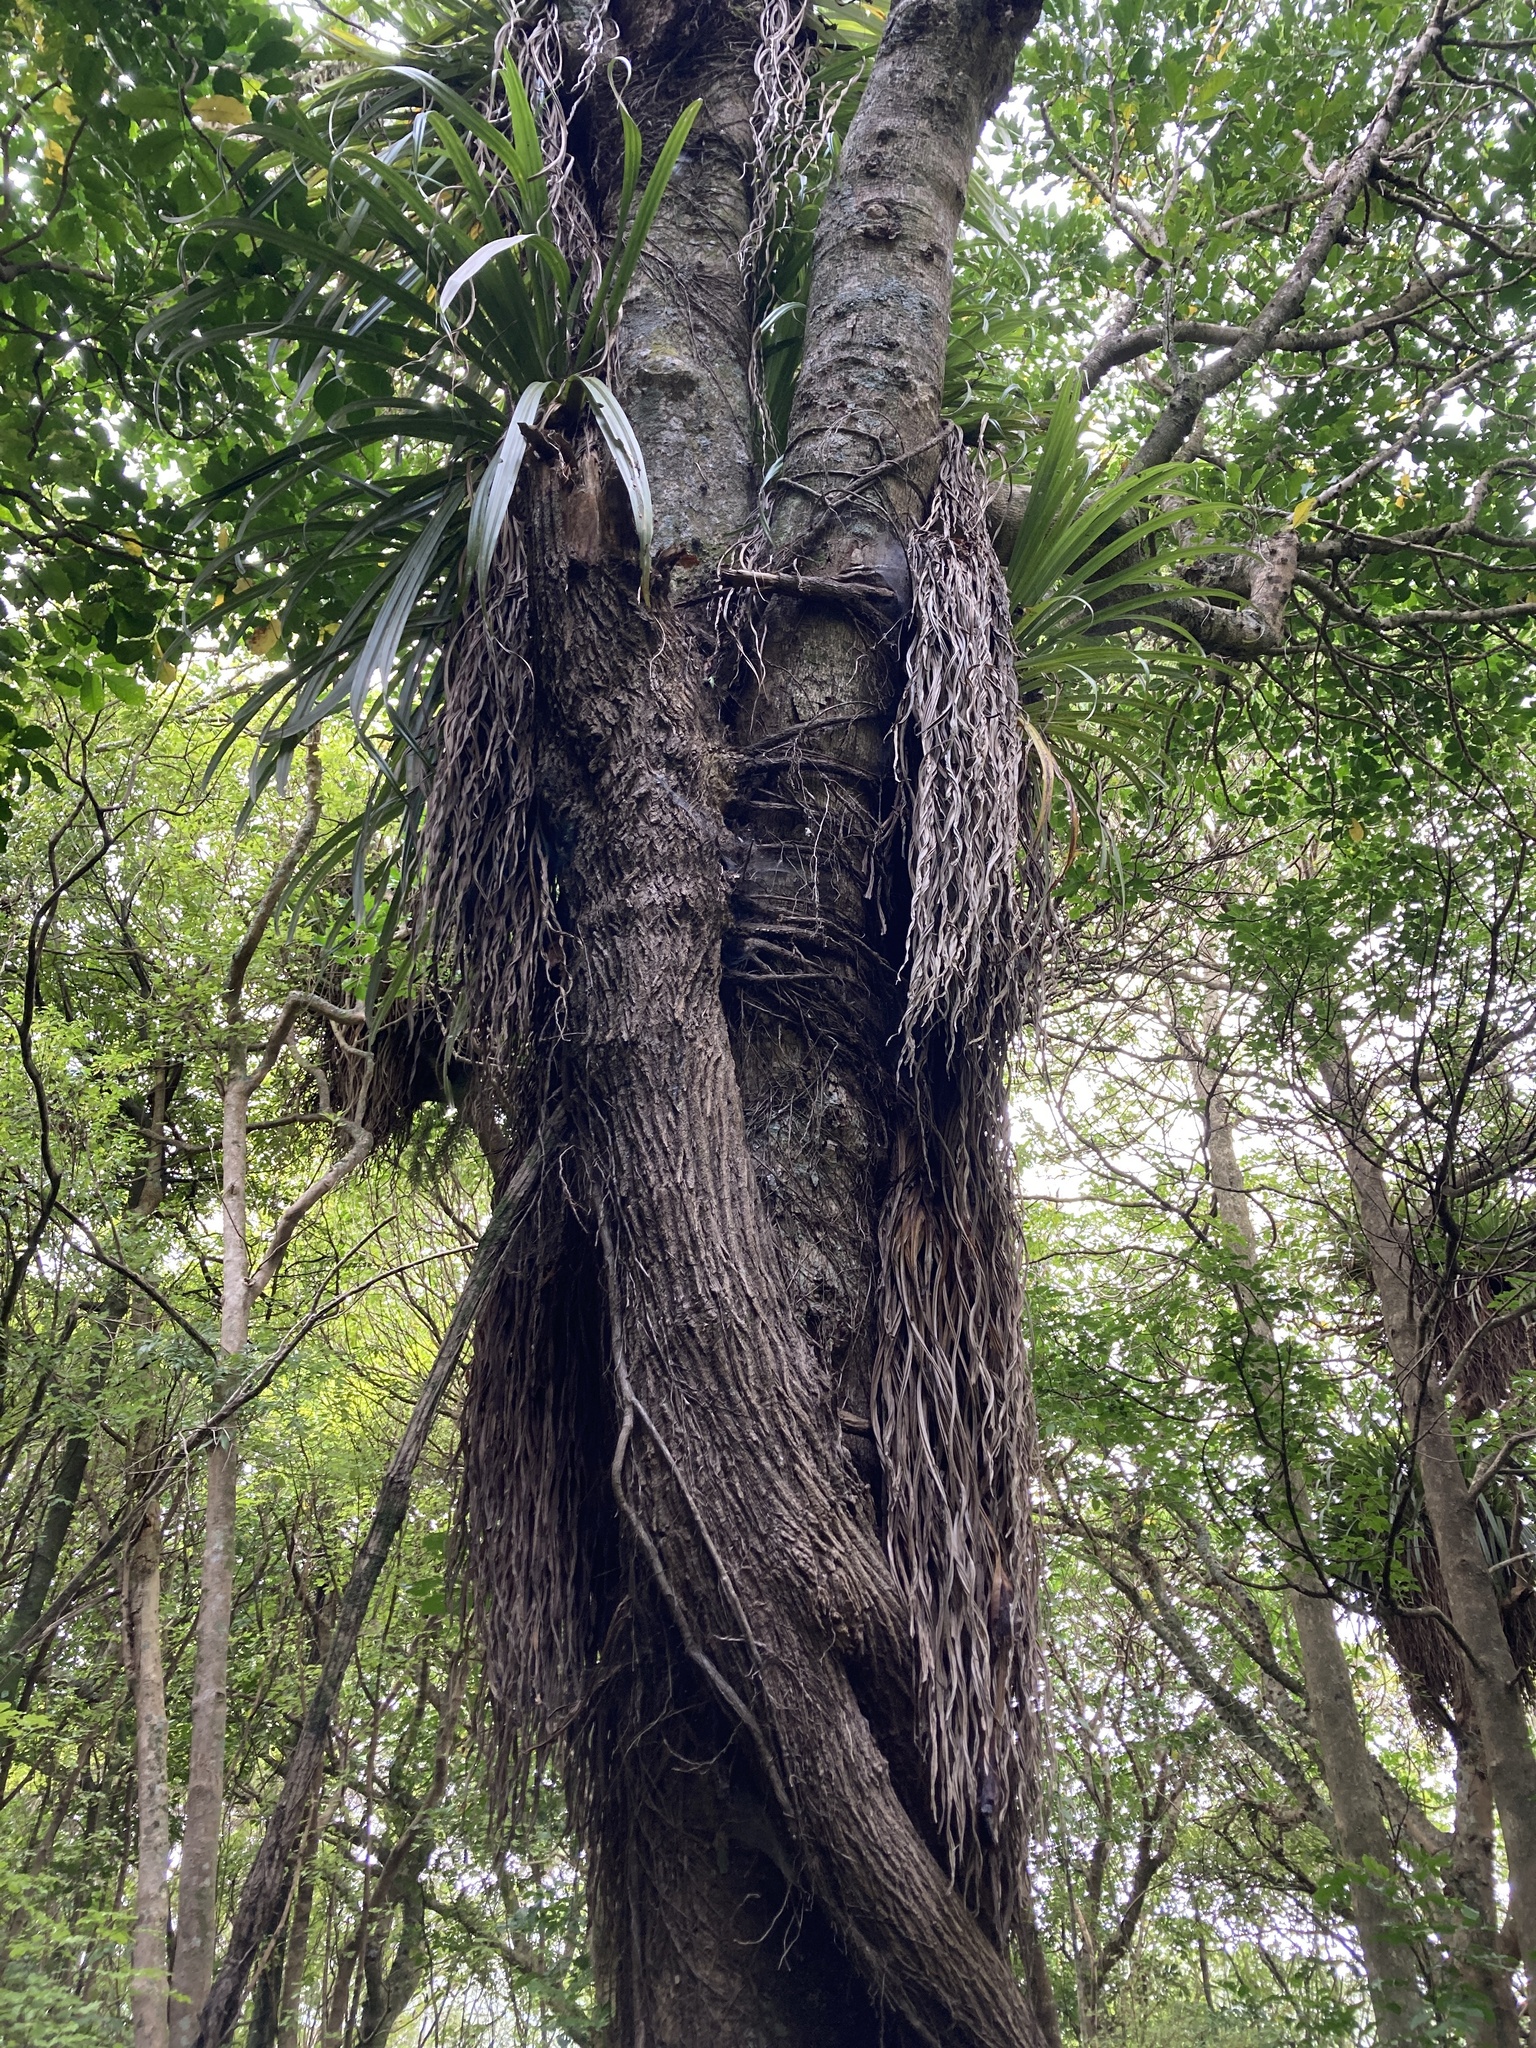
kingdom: Plantae
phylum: Tracheophyta
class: Magnoliopsida
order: Apiales
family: Griseliniaceae
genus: Griselinia
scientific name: Griselinia lucida
